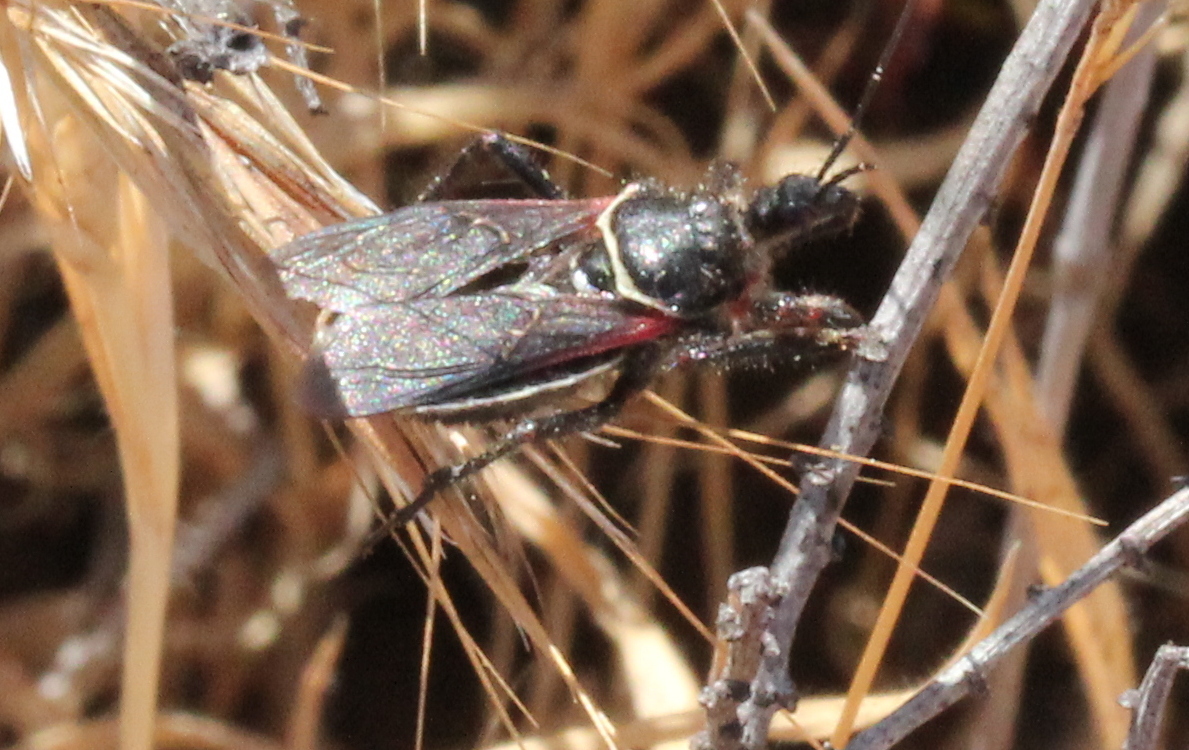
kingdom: Animalia
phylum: Arthropoda
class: Insecta
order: Hemiptera
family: Reduviidae
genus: Apiomerus
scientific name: Apiomerus californicus
